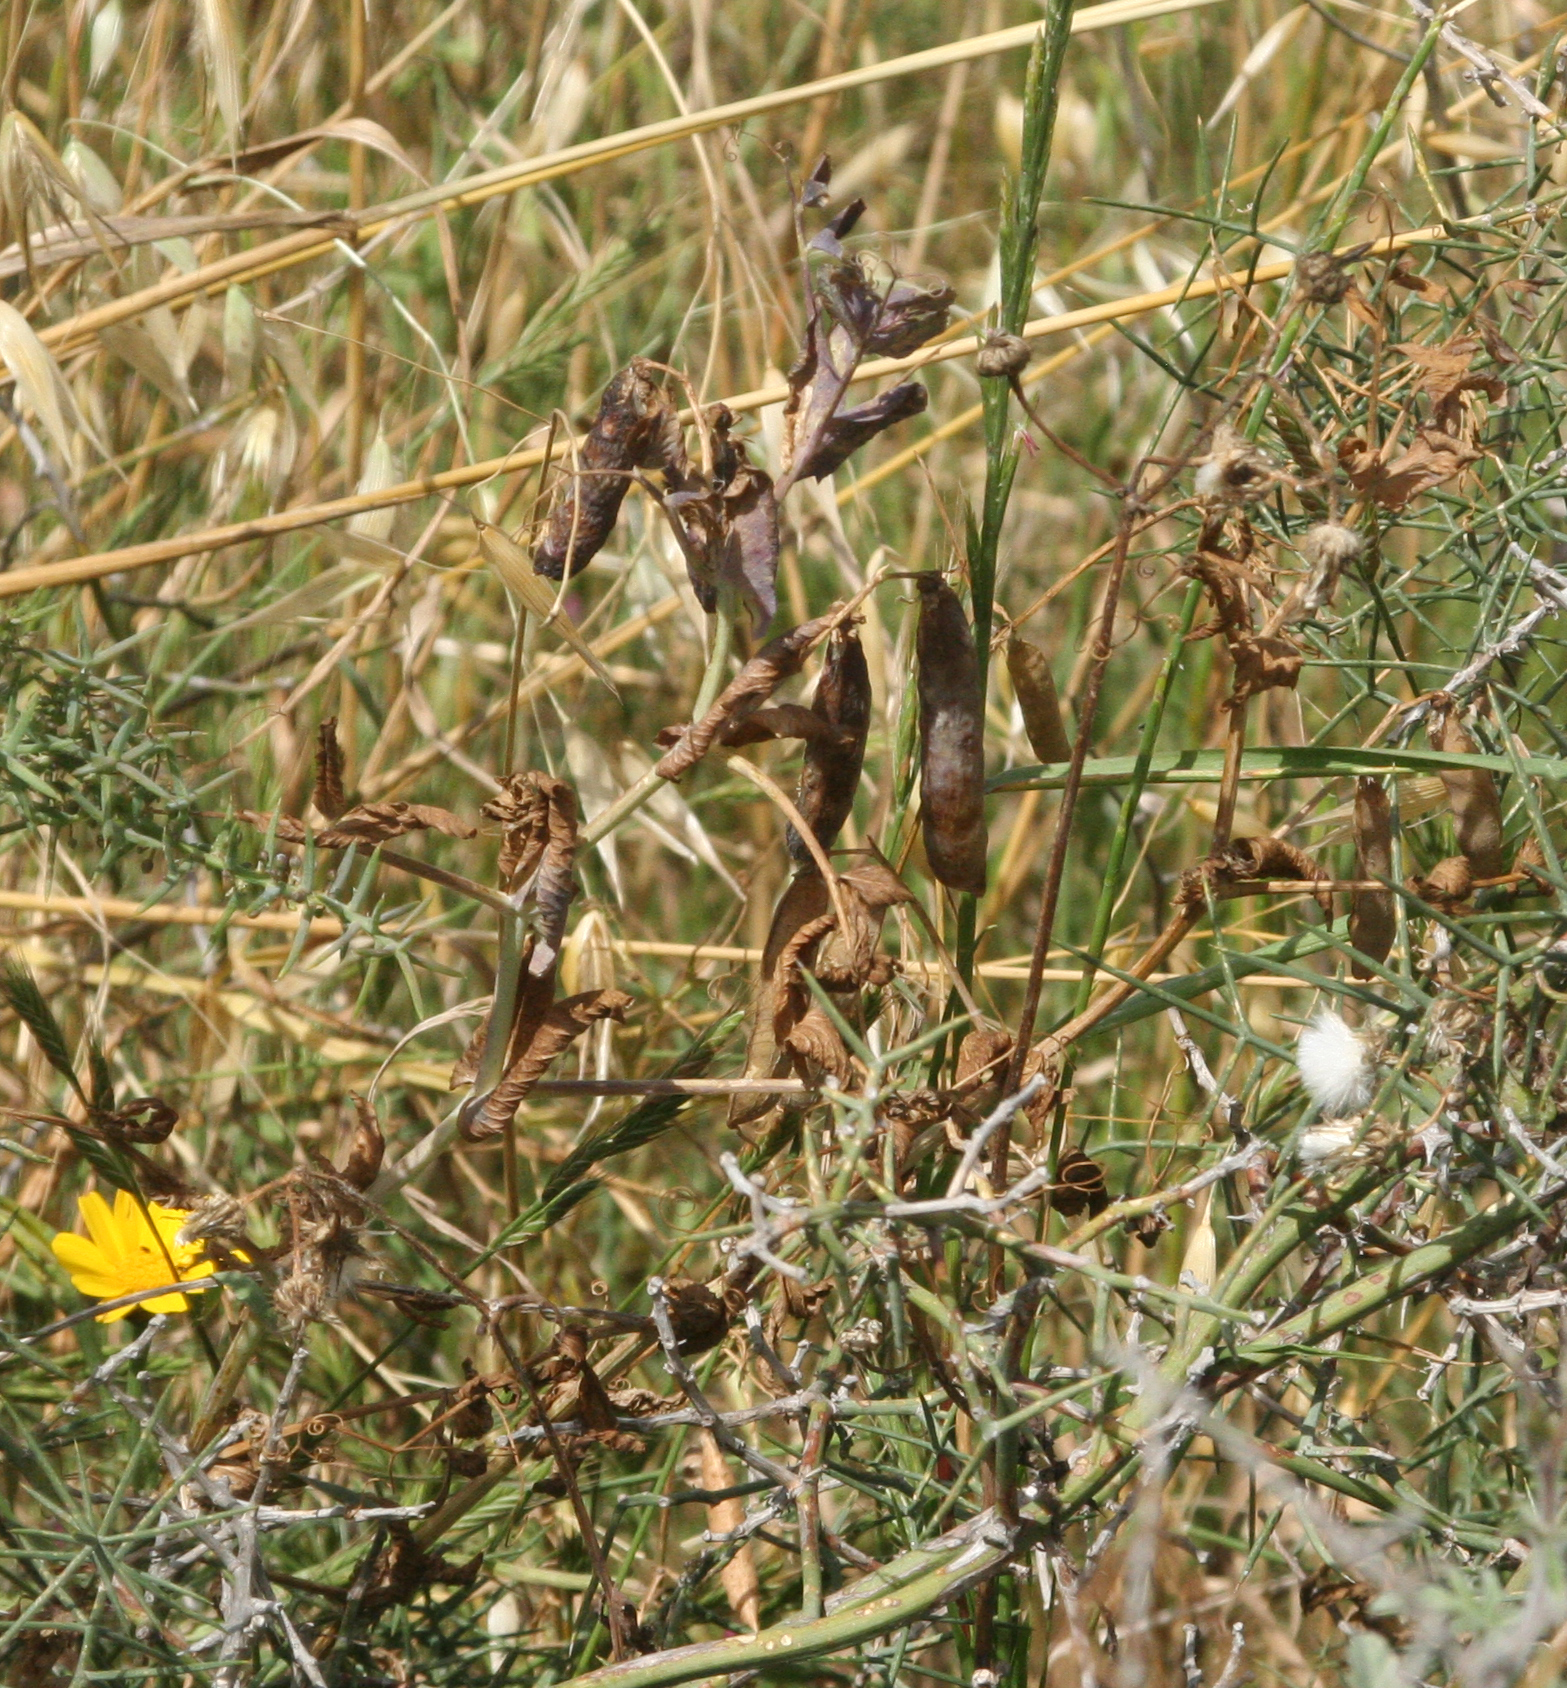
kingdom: Plantae
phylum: Tracheophyta
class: Magnoliopsida
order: Fabales
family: Fabaceae
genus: Lathyrus
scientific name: Lathyrus oleraceus
